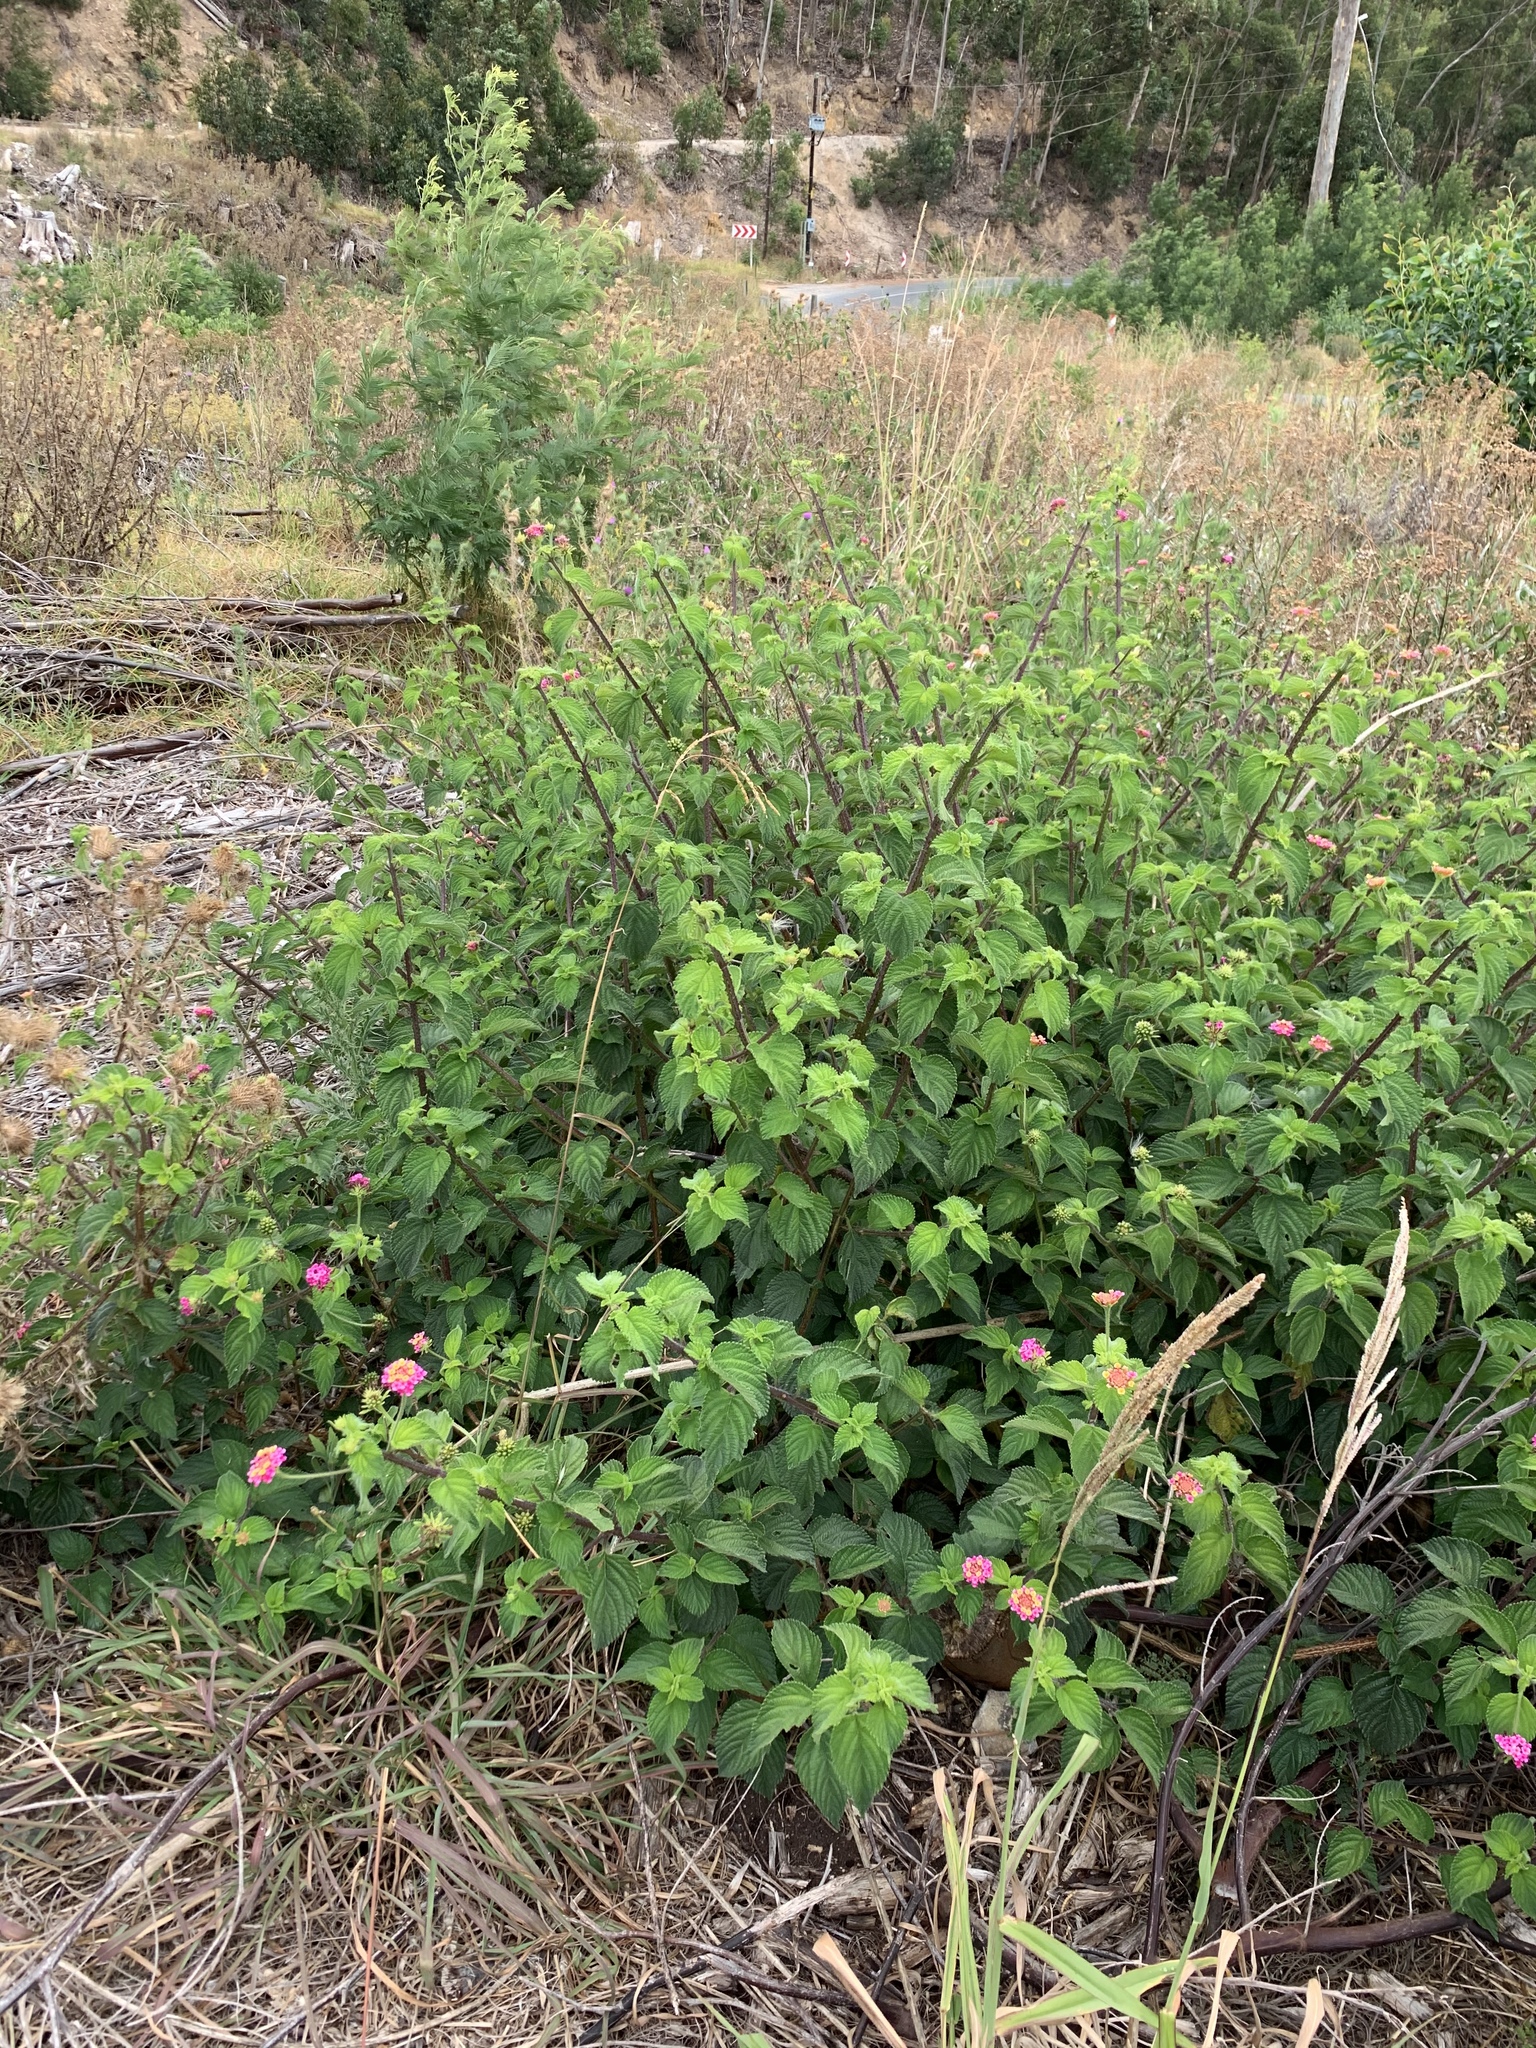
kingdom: Plantae
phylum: Tracheophyta
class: Magnoliopsida
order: Lamiales
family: Verbenaceae
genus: Lantana
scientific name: Lantana camara
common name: Lantana
